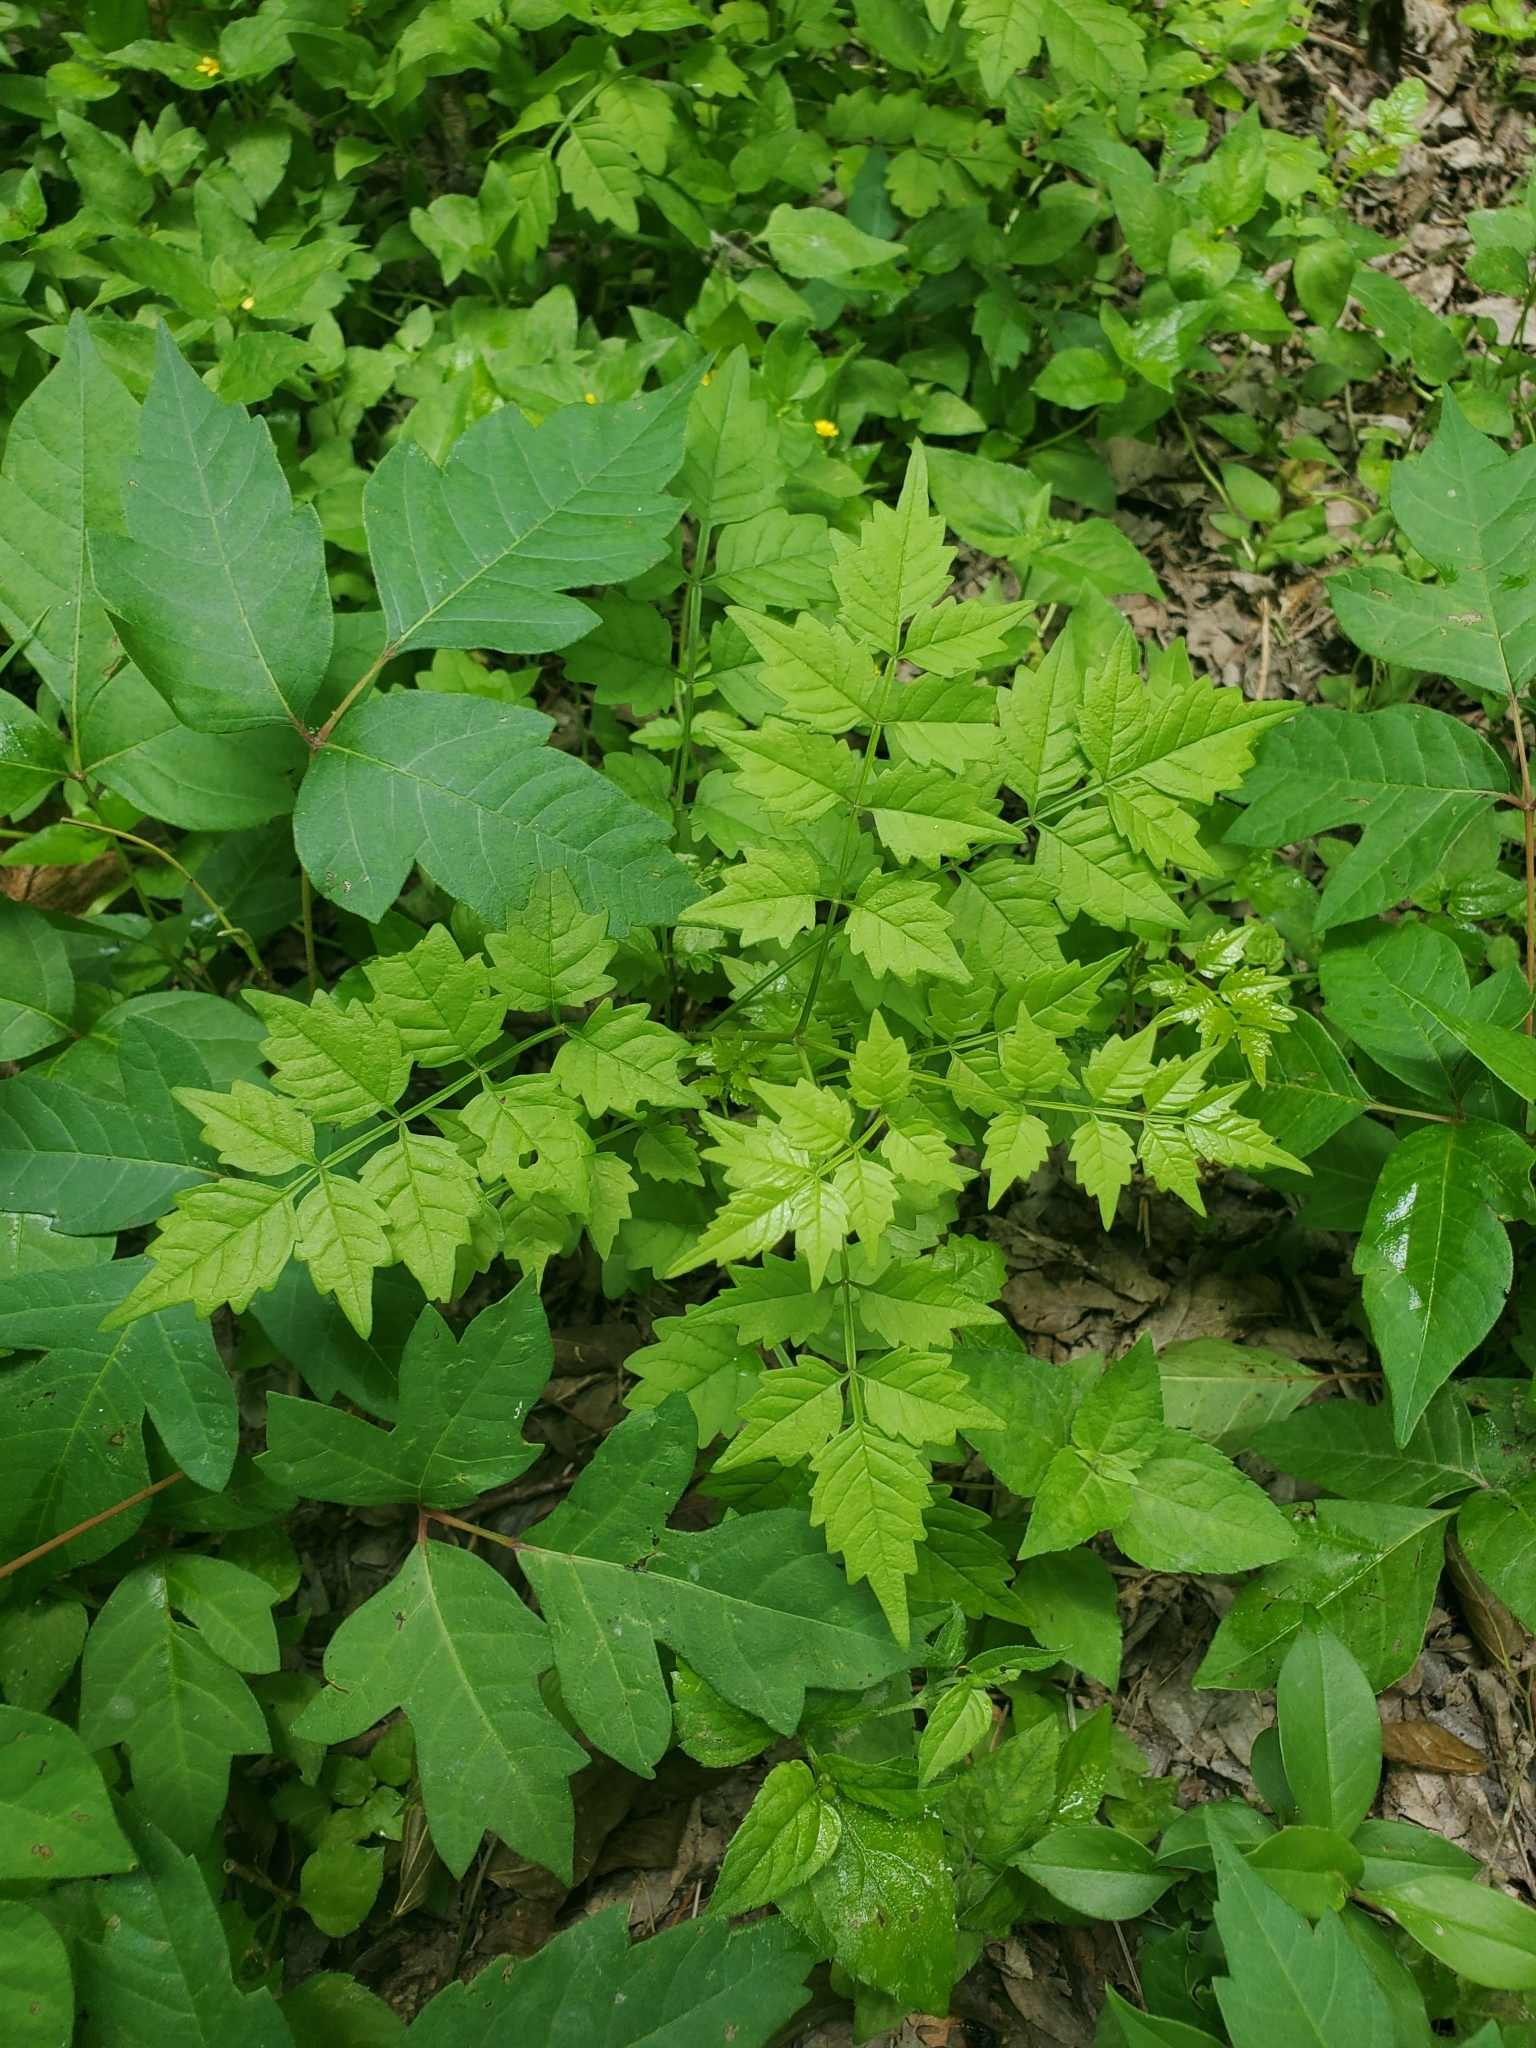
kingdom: Plantae
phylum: Tracheophyta
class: Magnoliopsida
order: Lamiales
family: Bignoniaceae
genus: Campsis
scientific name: Campsis radicans
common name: Trumpet-creeper
